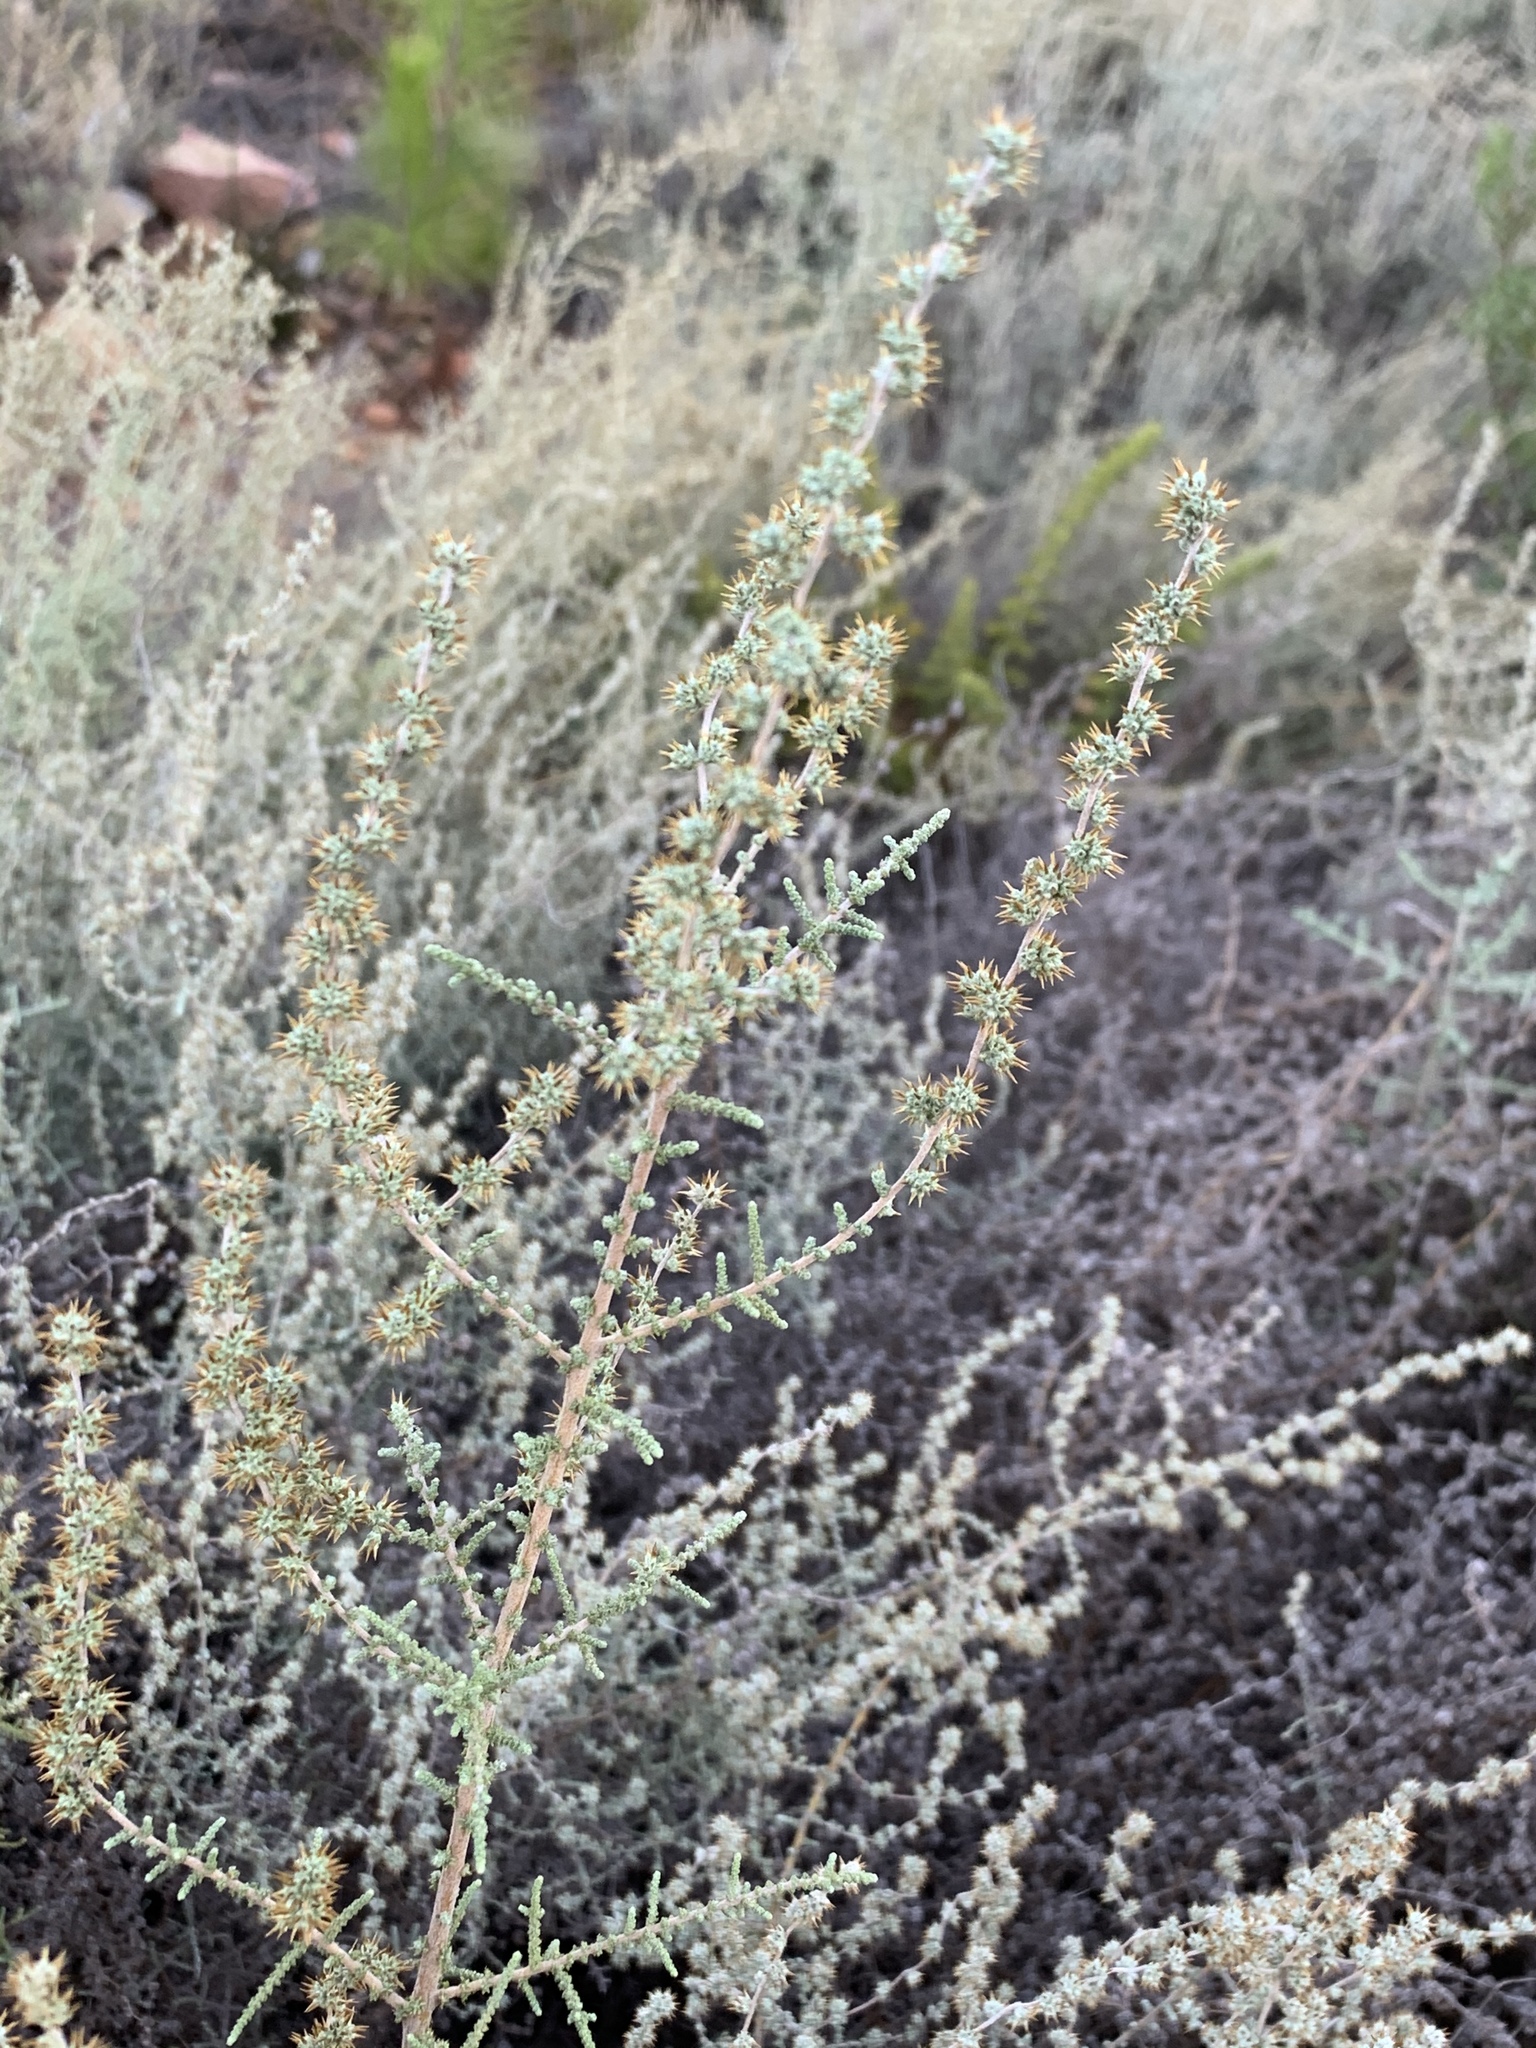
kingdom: Plantae
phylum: Tracheophyta
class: Magnoliopsida
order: Asterales
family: Asteraceae
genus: Seriphium
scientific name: Seriphium plumosum
